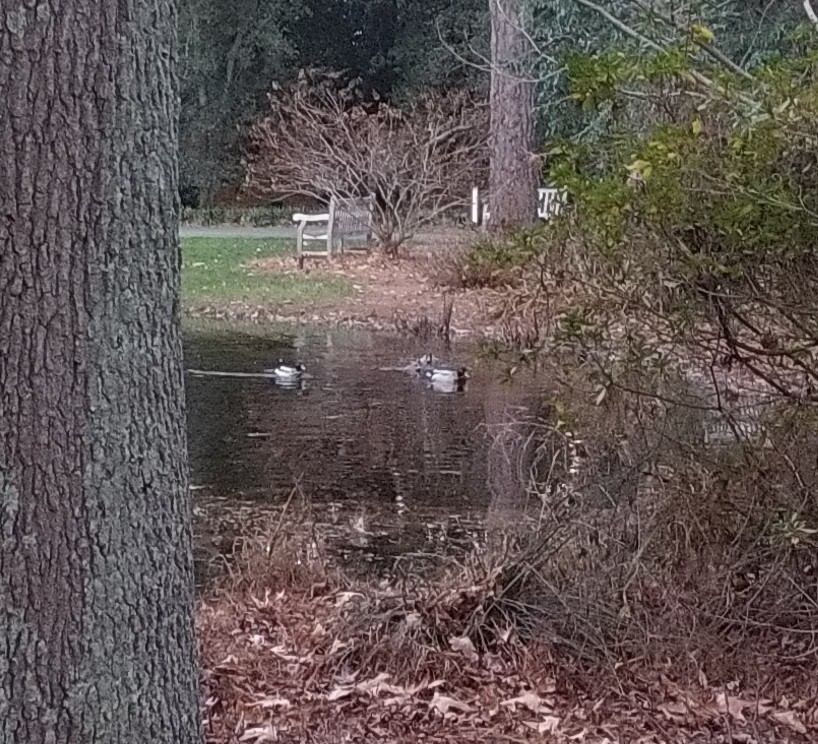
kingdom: Animalia
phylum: Chordata
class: Aves
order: Anseriformes
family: Anatidae
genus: Anas
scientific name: Anas platyrhynchos
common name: Mallard
